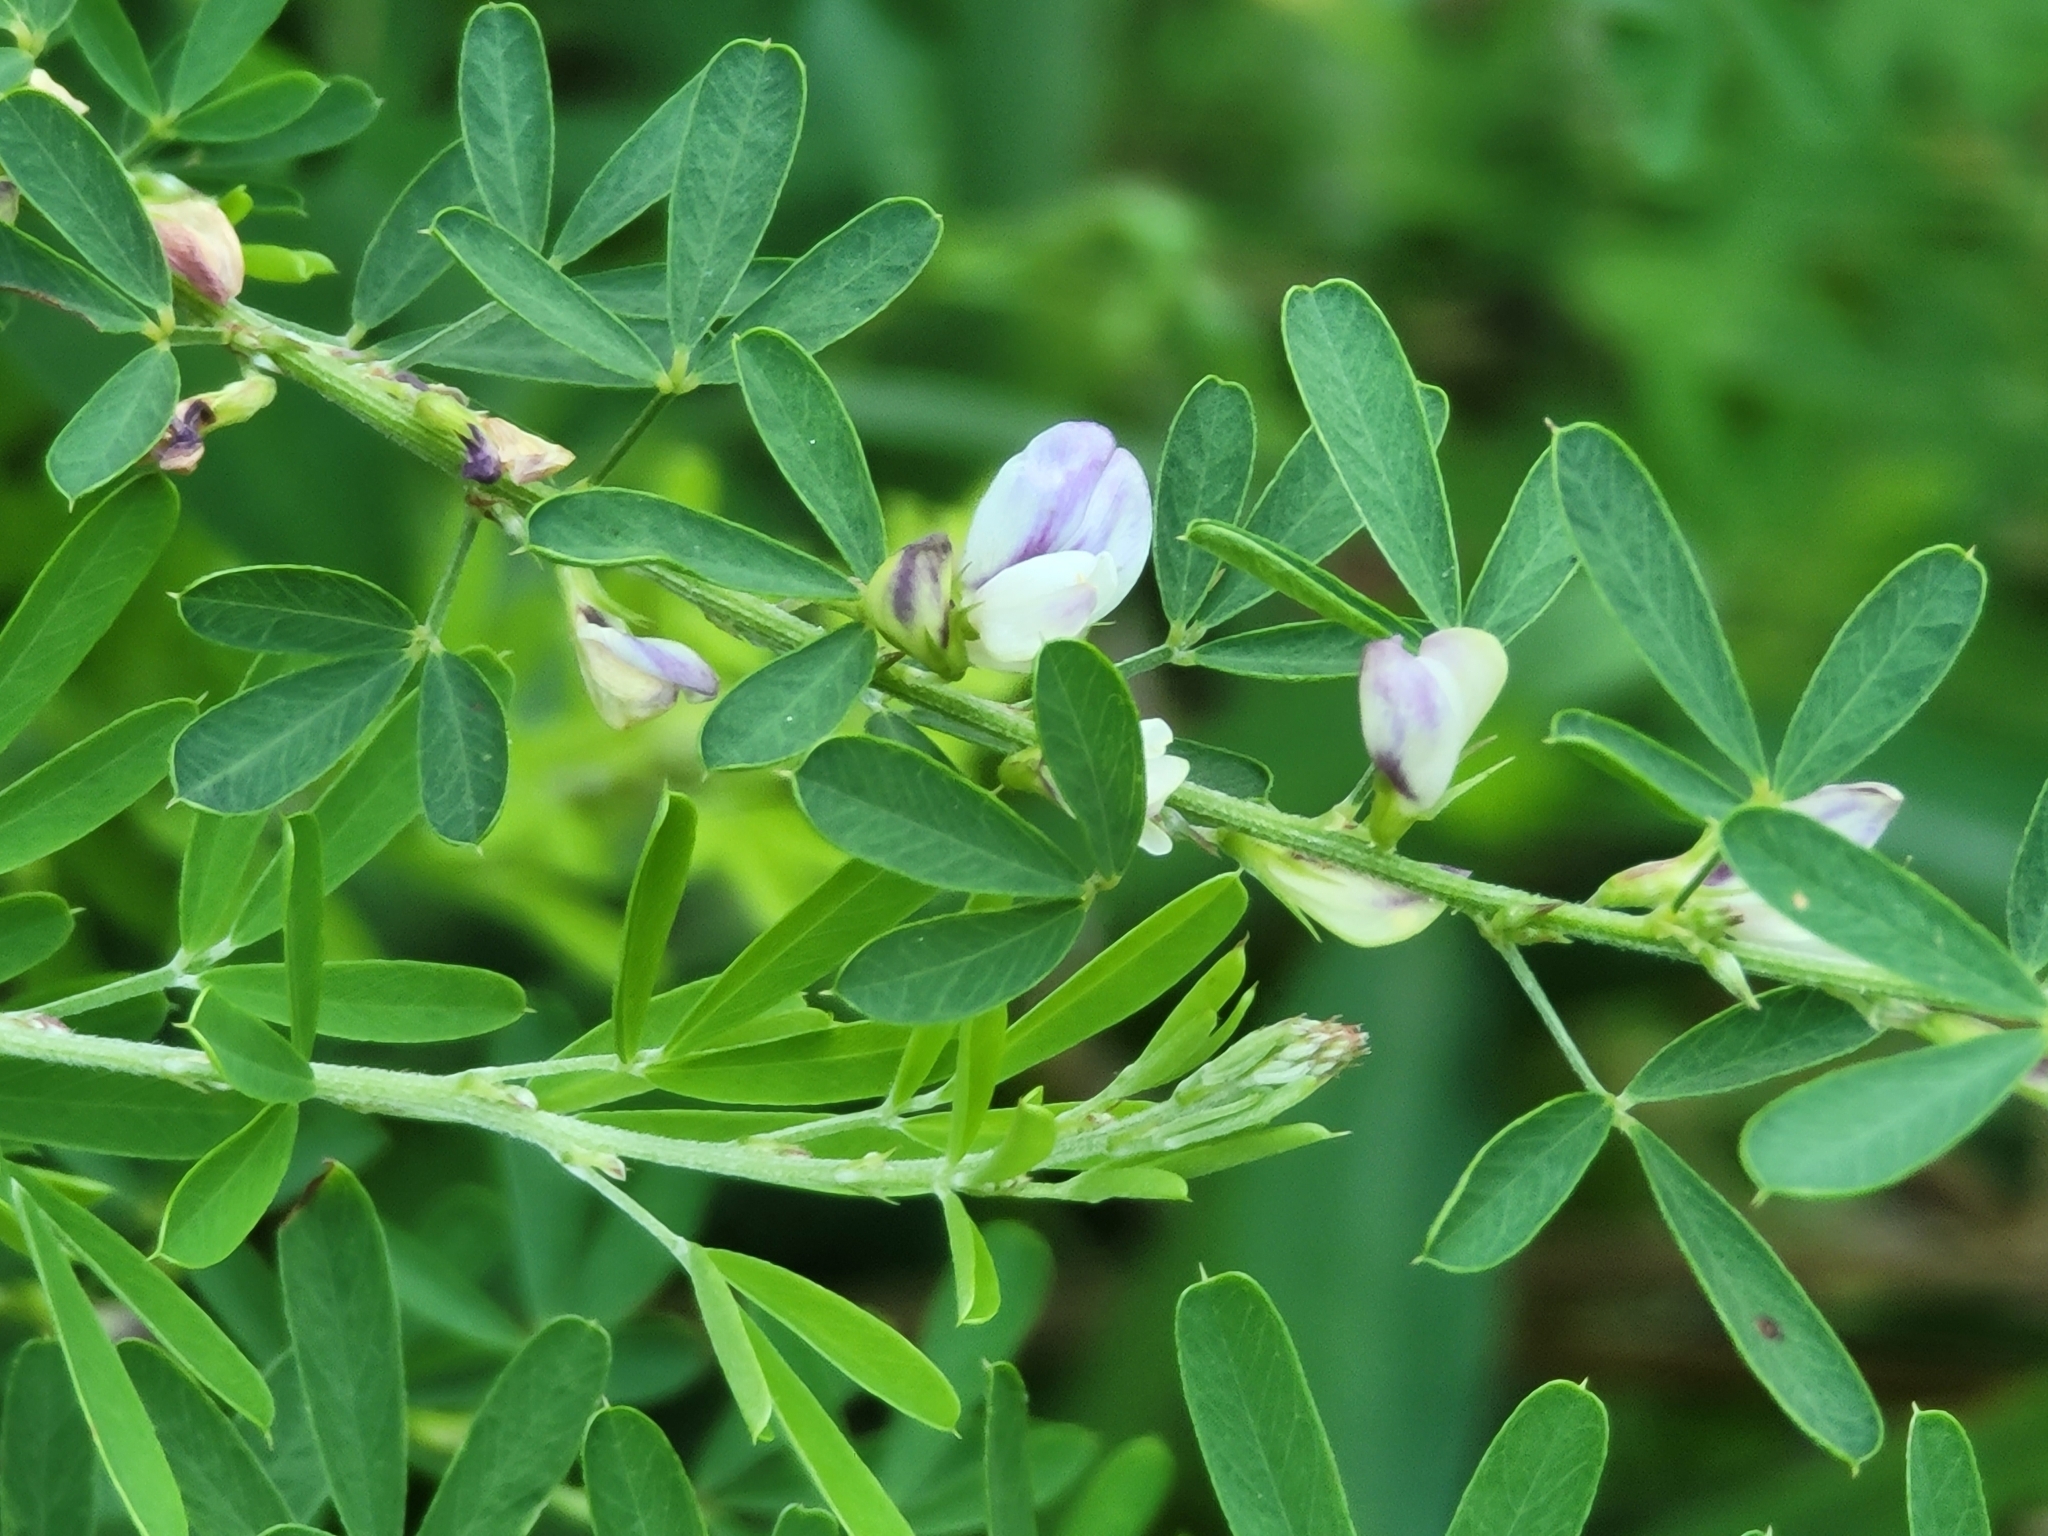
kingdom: Plantae
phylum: Tracheophyta
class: Magnoliopsida
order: Fabales
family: Fabaceae
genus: Lespedeza
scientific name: Lespedeza cuneata
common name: Chinese bush-clover
